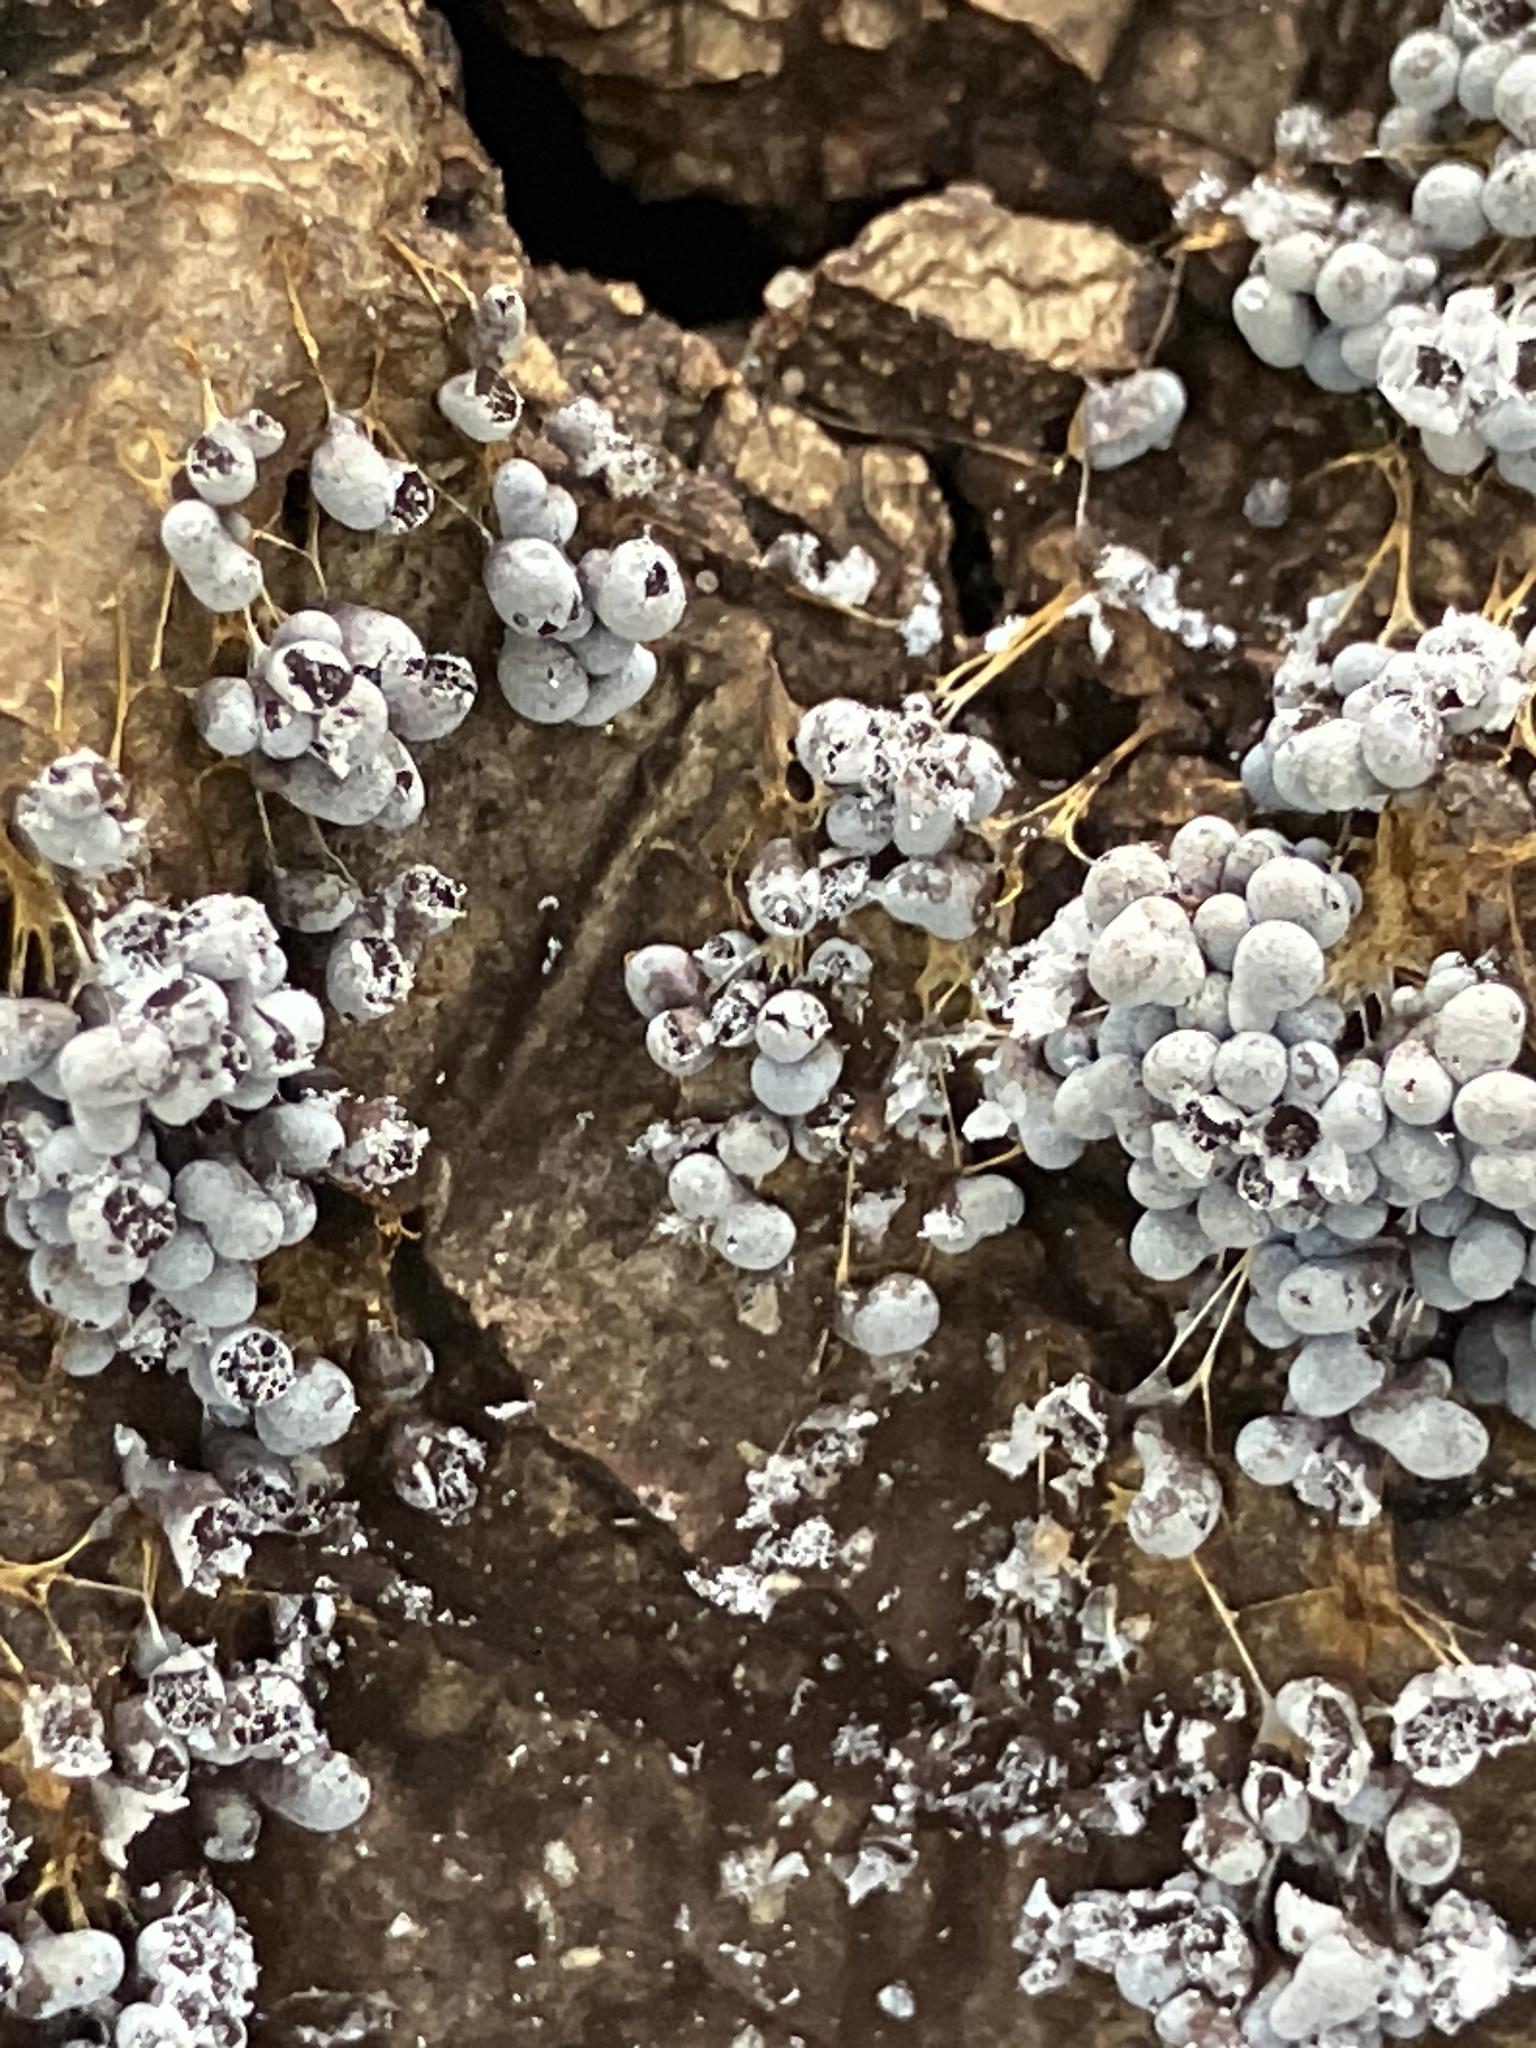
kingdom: Protozoa
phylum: Mycetozoa
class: Myxomycetes
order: Physarales
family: Physaraceae
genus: Badhamia
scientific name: Badhamia utricularis
